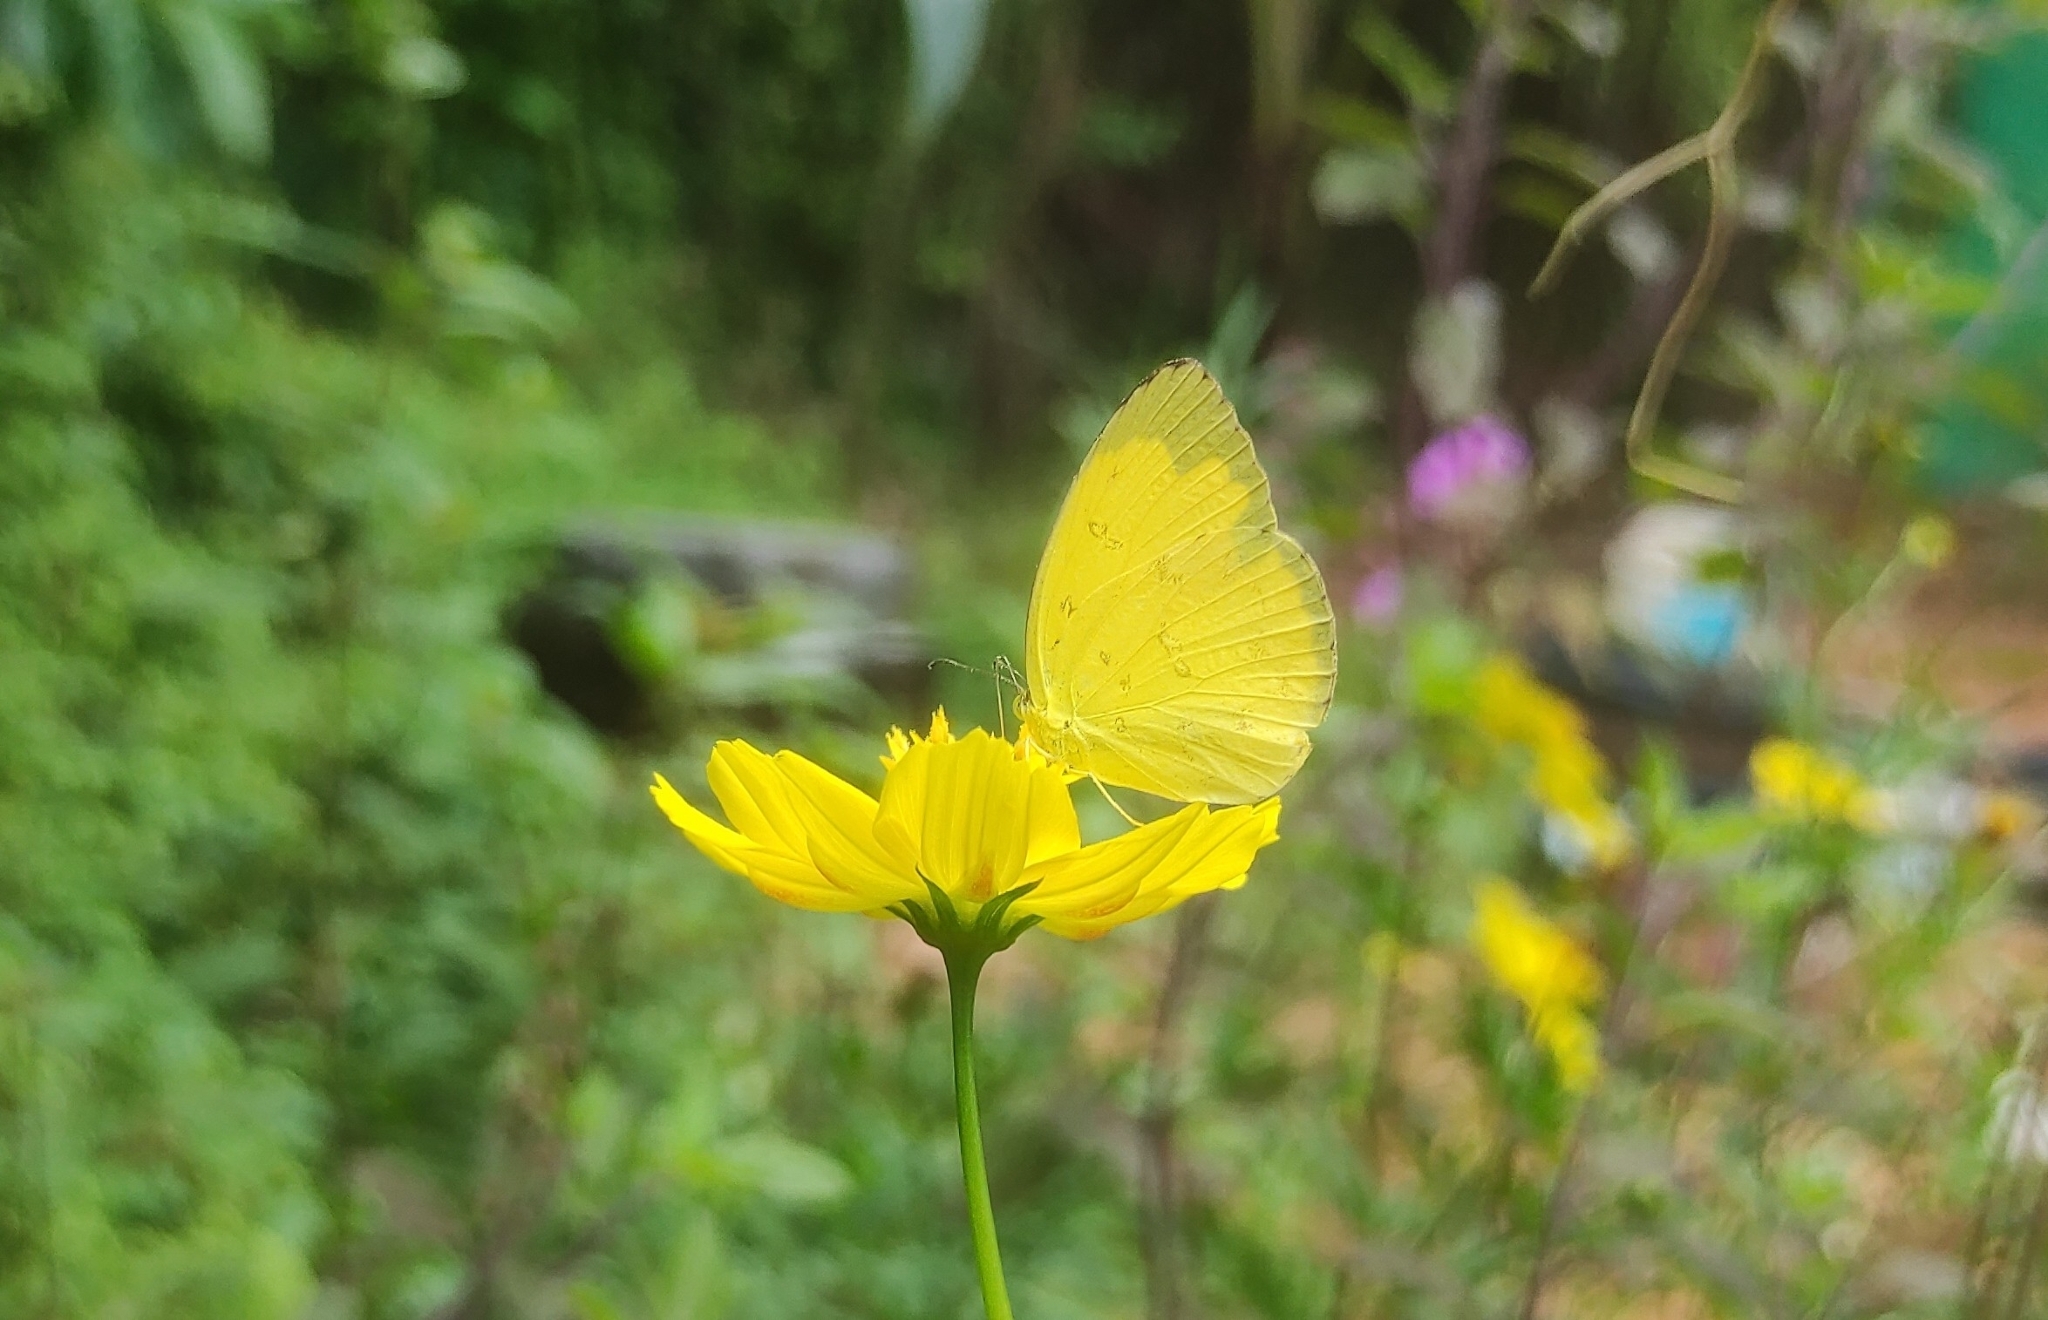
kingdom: Animalia
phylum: Arthropoda
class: Insecta
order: Lepidoptera
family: Pieridae
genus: Eurema
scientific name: Eurema hecabe
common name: Pale grass yellow
